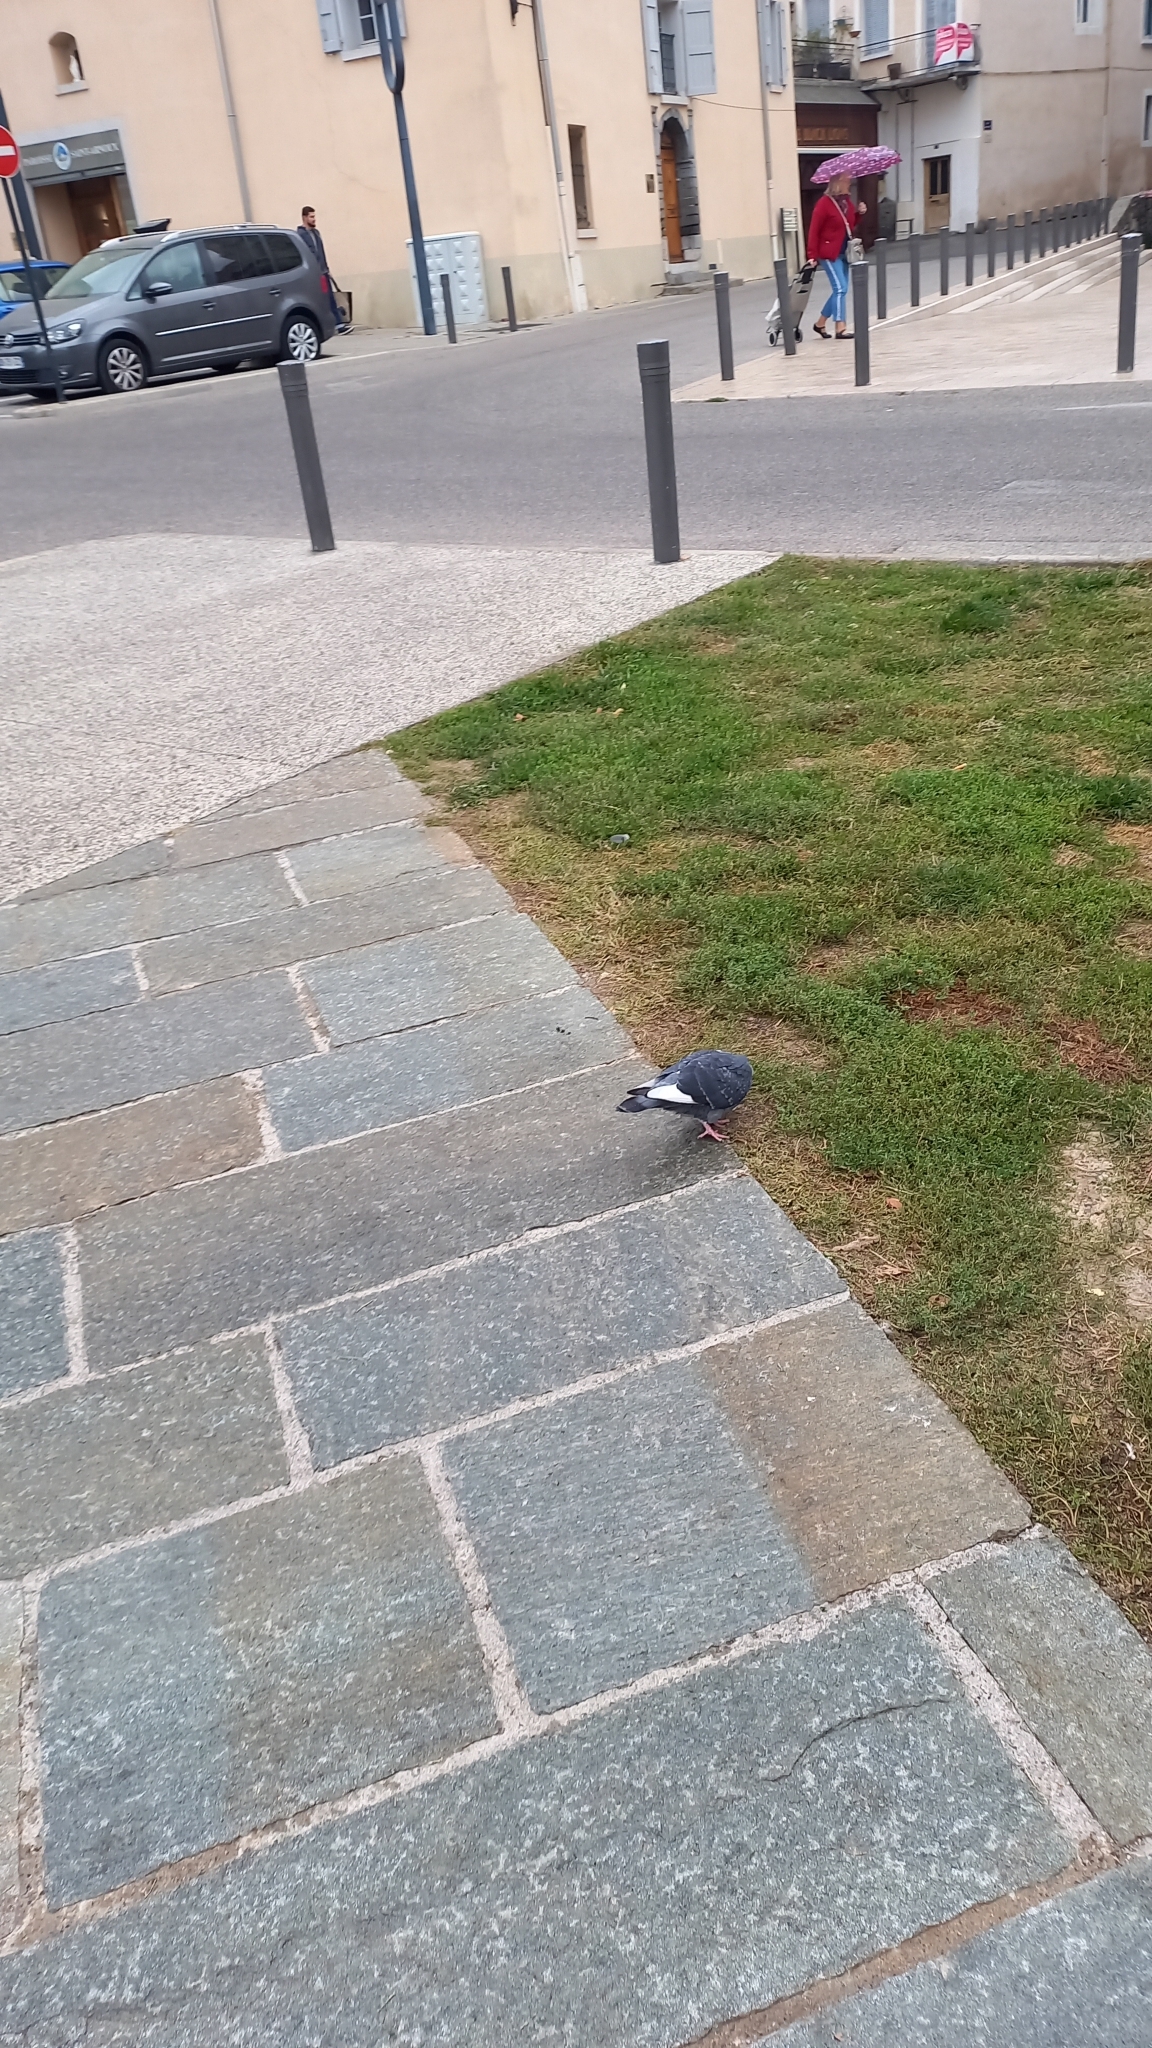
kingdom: Animalia
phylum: Chordata
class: Aves
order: Columbiformes
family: Columbidae
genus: Columba
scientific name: Columba livia
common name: Rock pigeon
